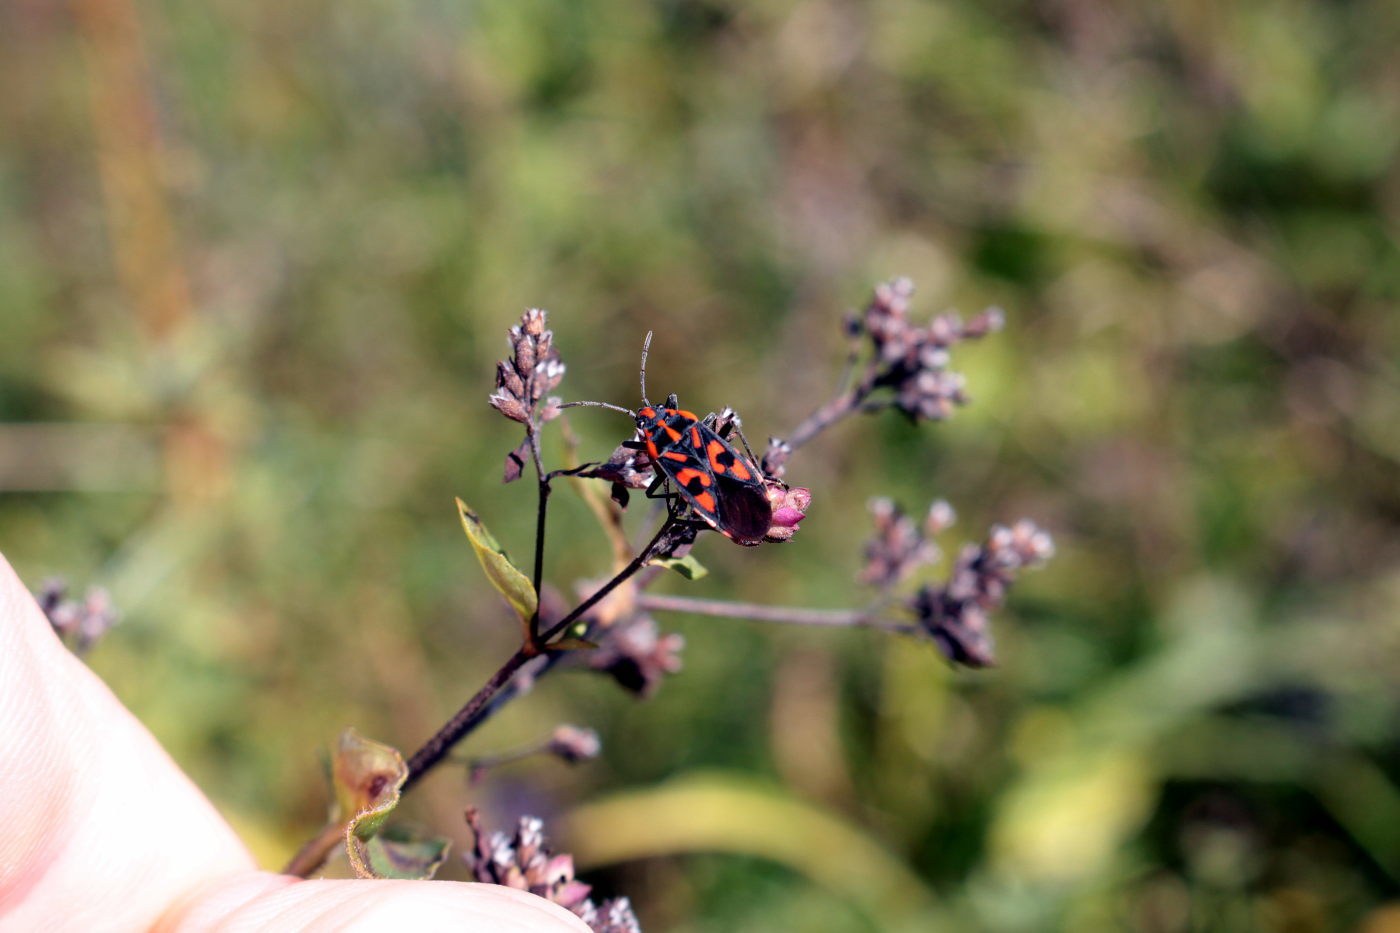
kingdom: Animalia
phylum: Arthropoda
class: Insecta
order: Hemiptera
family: Lygaeidae
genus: Spilostethus
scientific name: Spilostethus saxatilis
